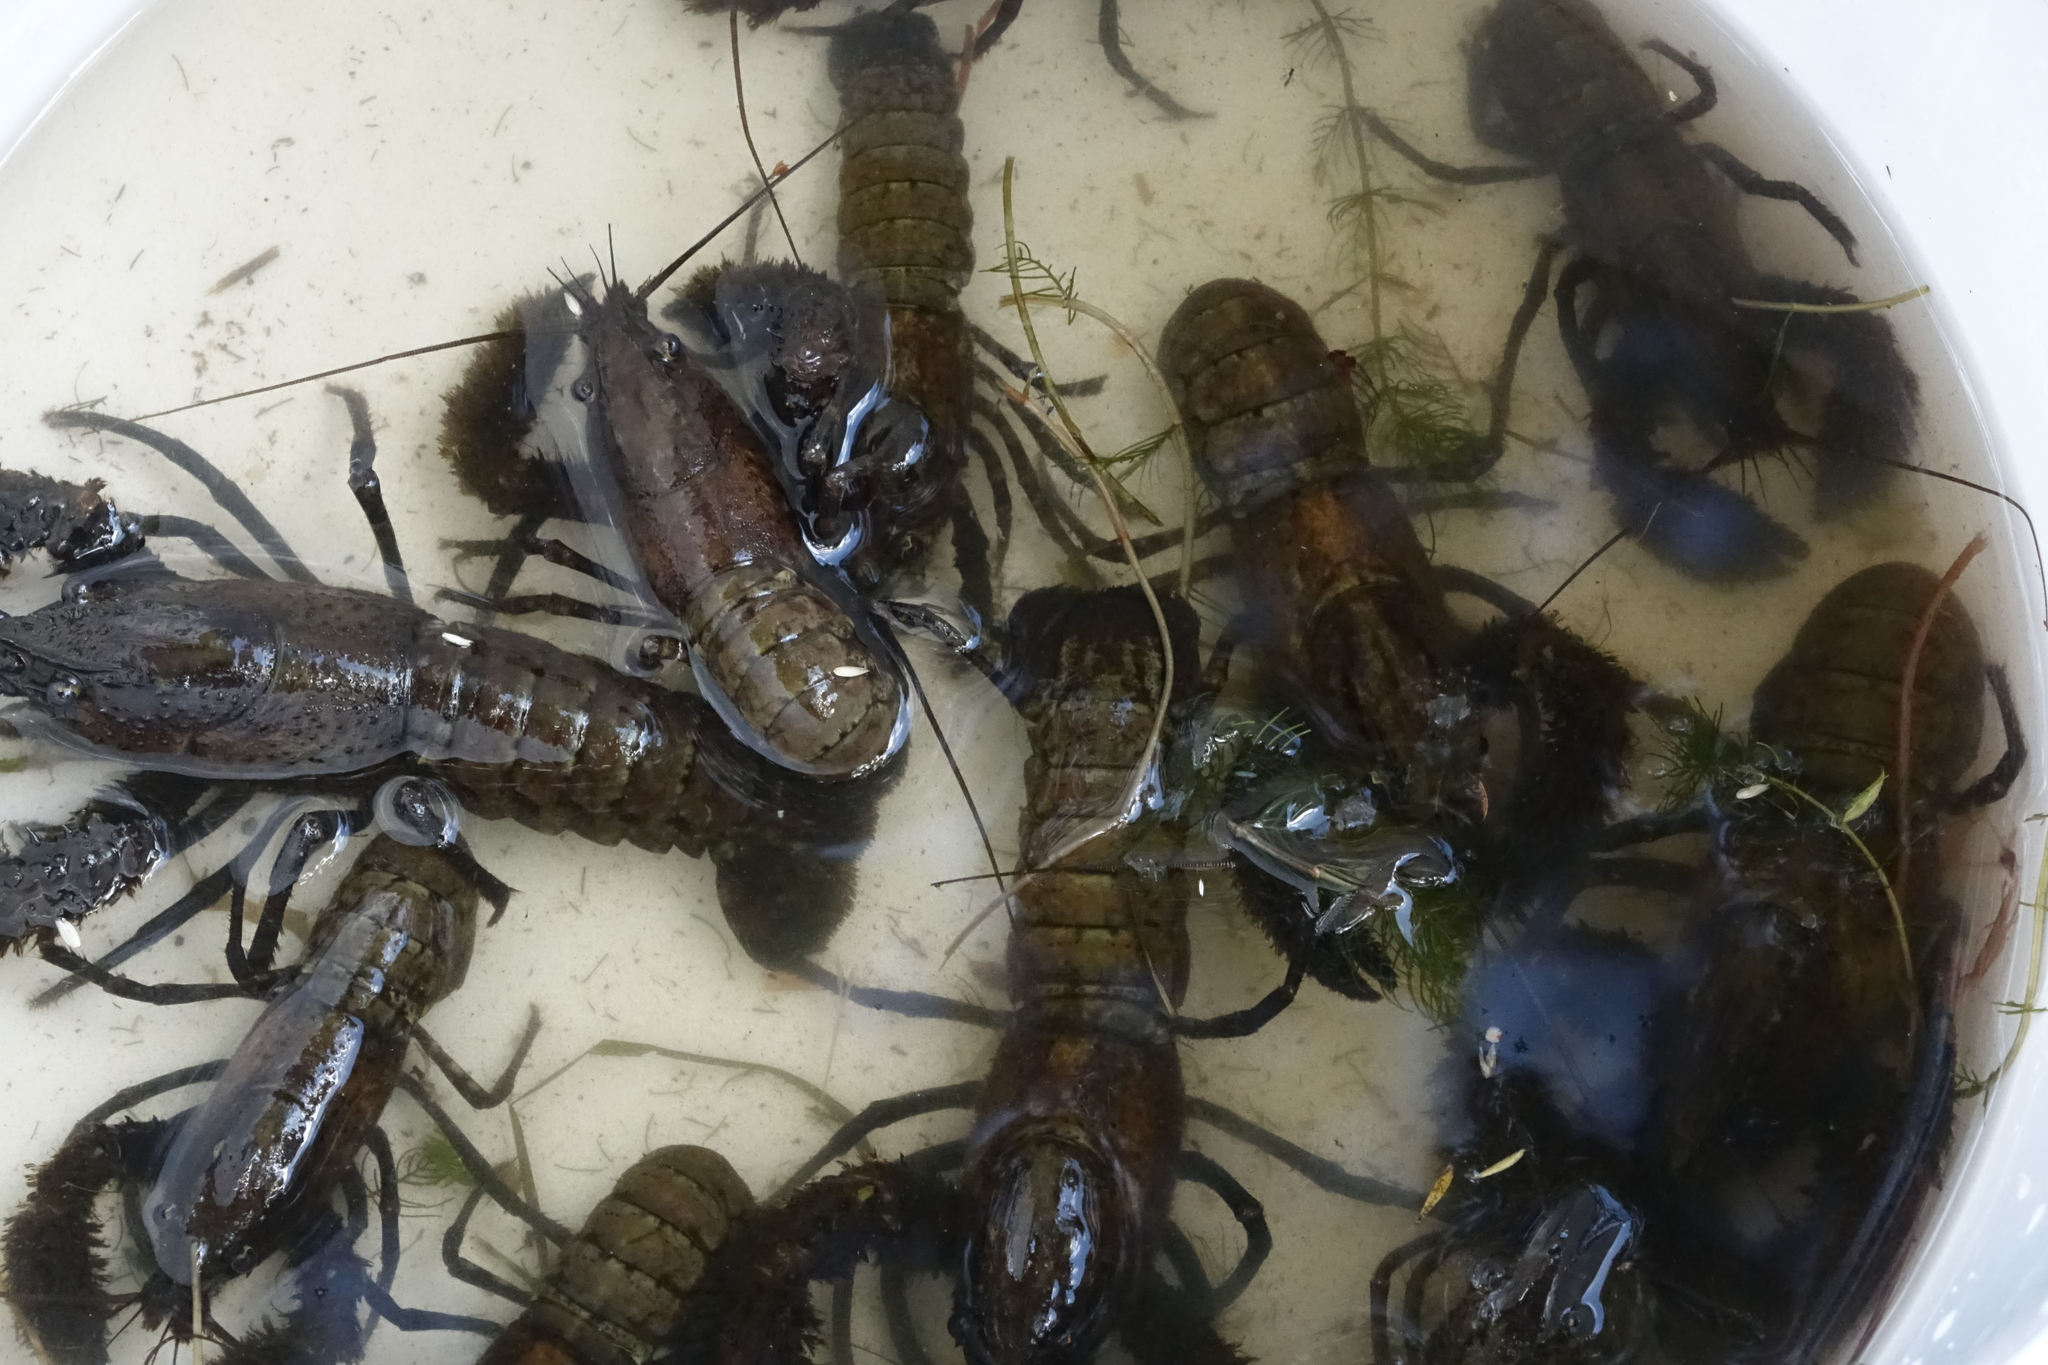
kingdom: Animalia
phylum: Arthropoda
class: Malacostraca
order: Decapoda
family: Parastacidae
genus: Paranephrops
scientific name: Paranephrops zealandicus
